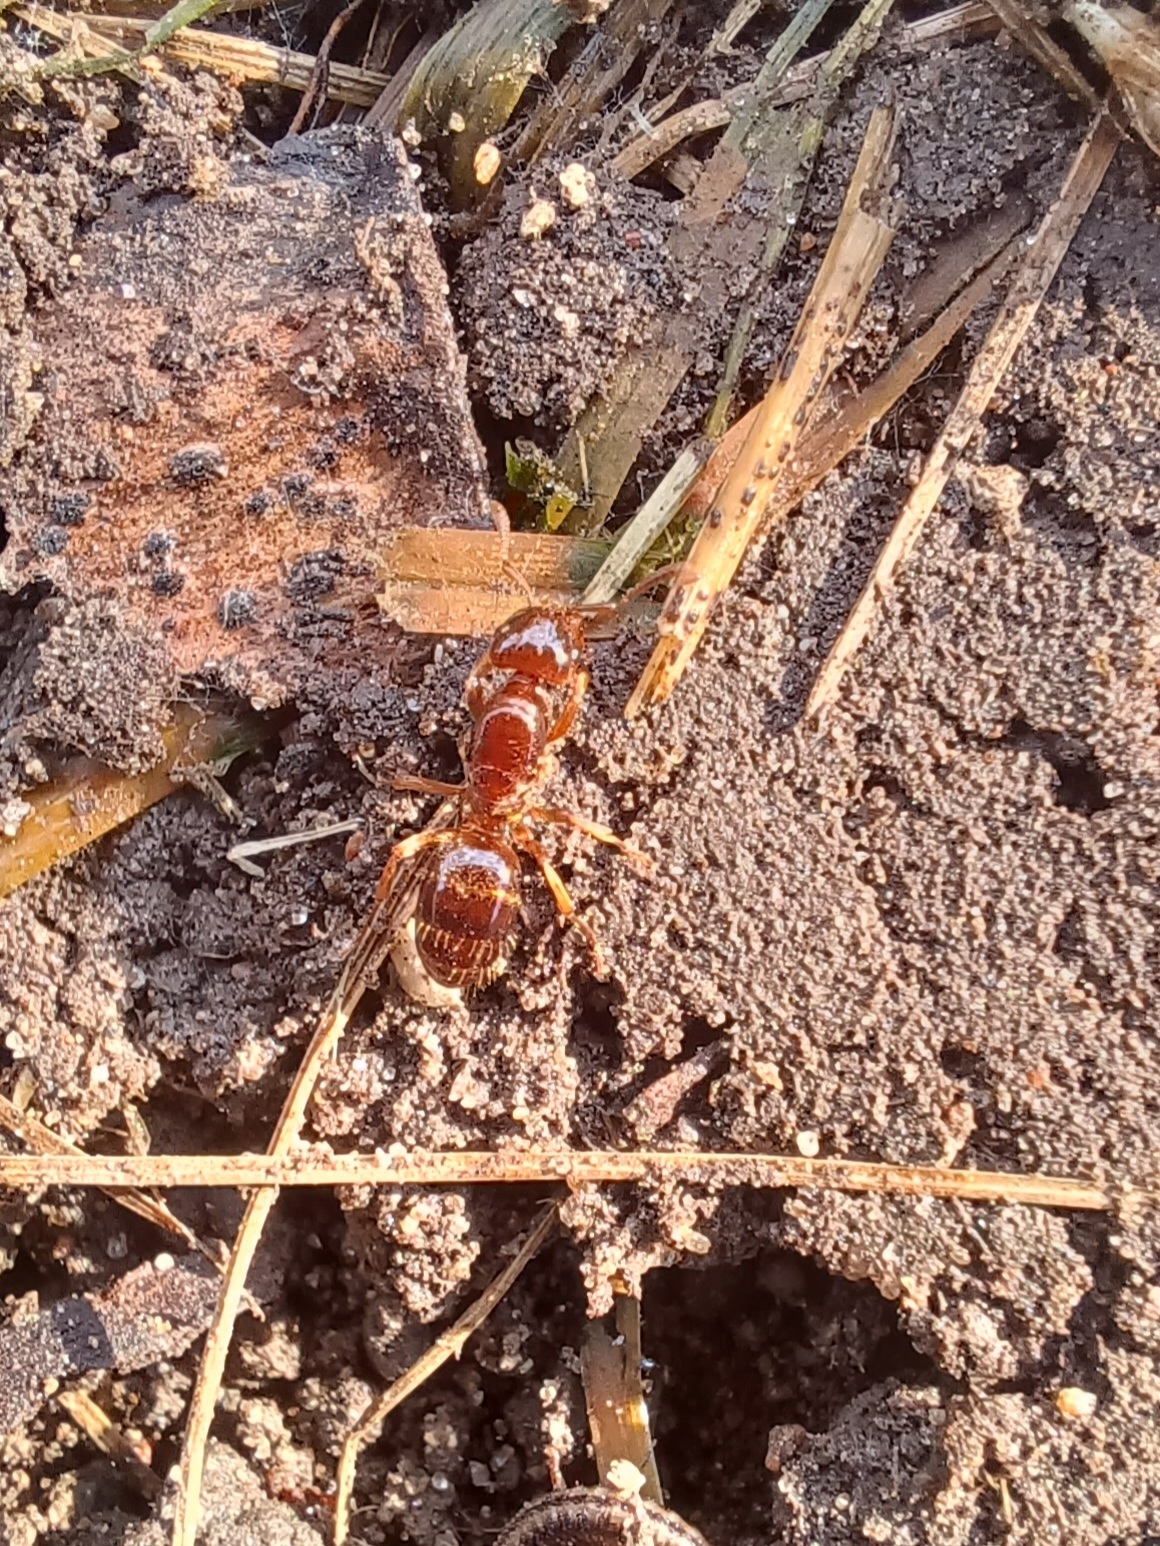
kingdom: Animalia
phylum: Arthropoda
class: Insecta
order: Hymenoptera
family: Formicidae
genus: Lasius
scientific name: Lasius claviger
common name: Common citronella ant
